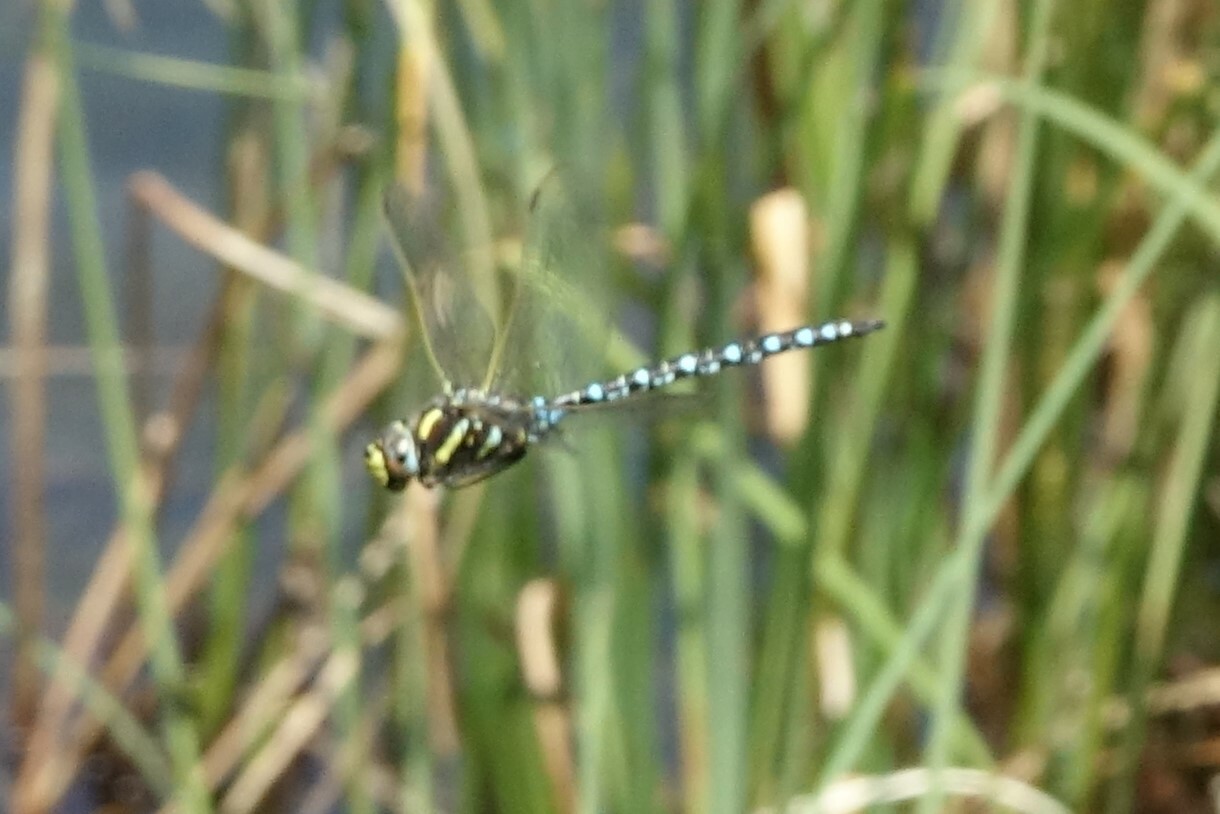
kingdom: Animalia
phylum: Arthropoda
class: Insecta
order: Odonata
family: Aeshnidae
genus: Aeshna
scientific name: Aeshna juncea
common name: Moorland hawker
